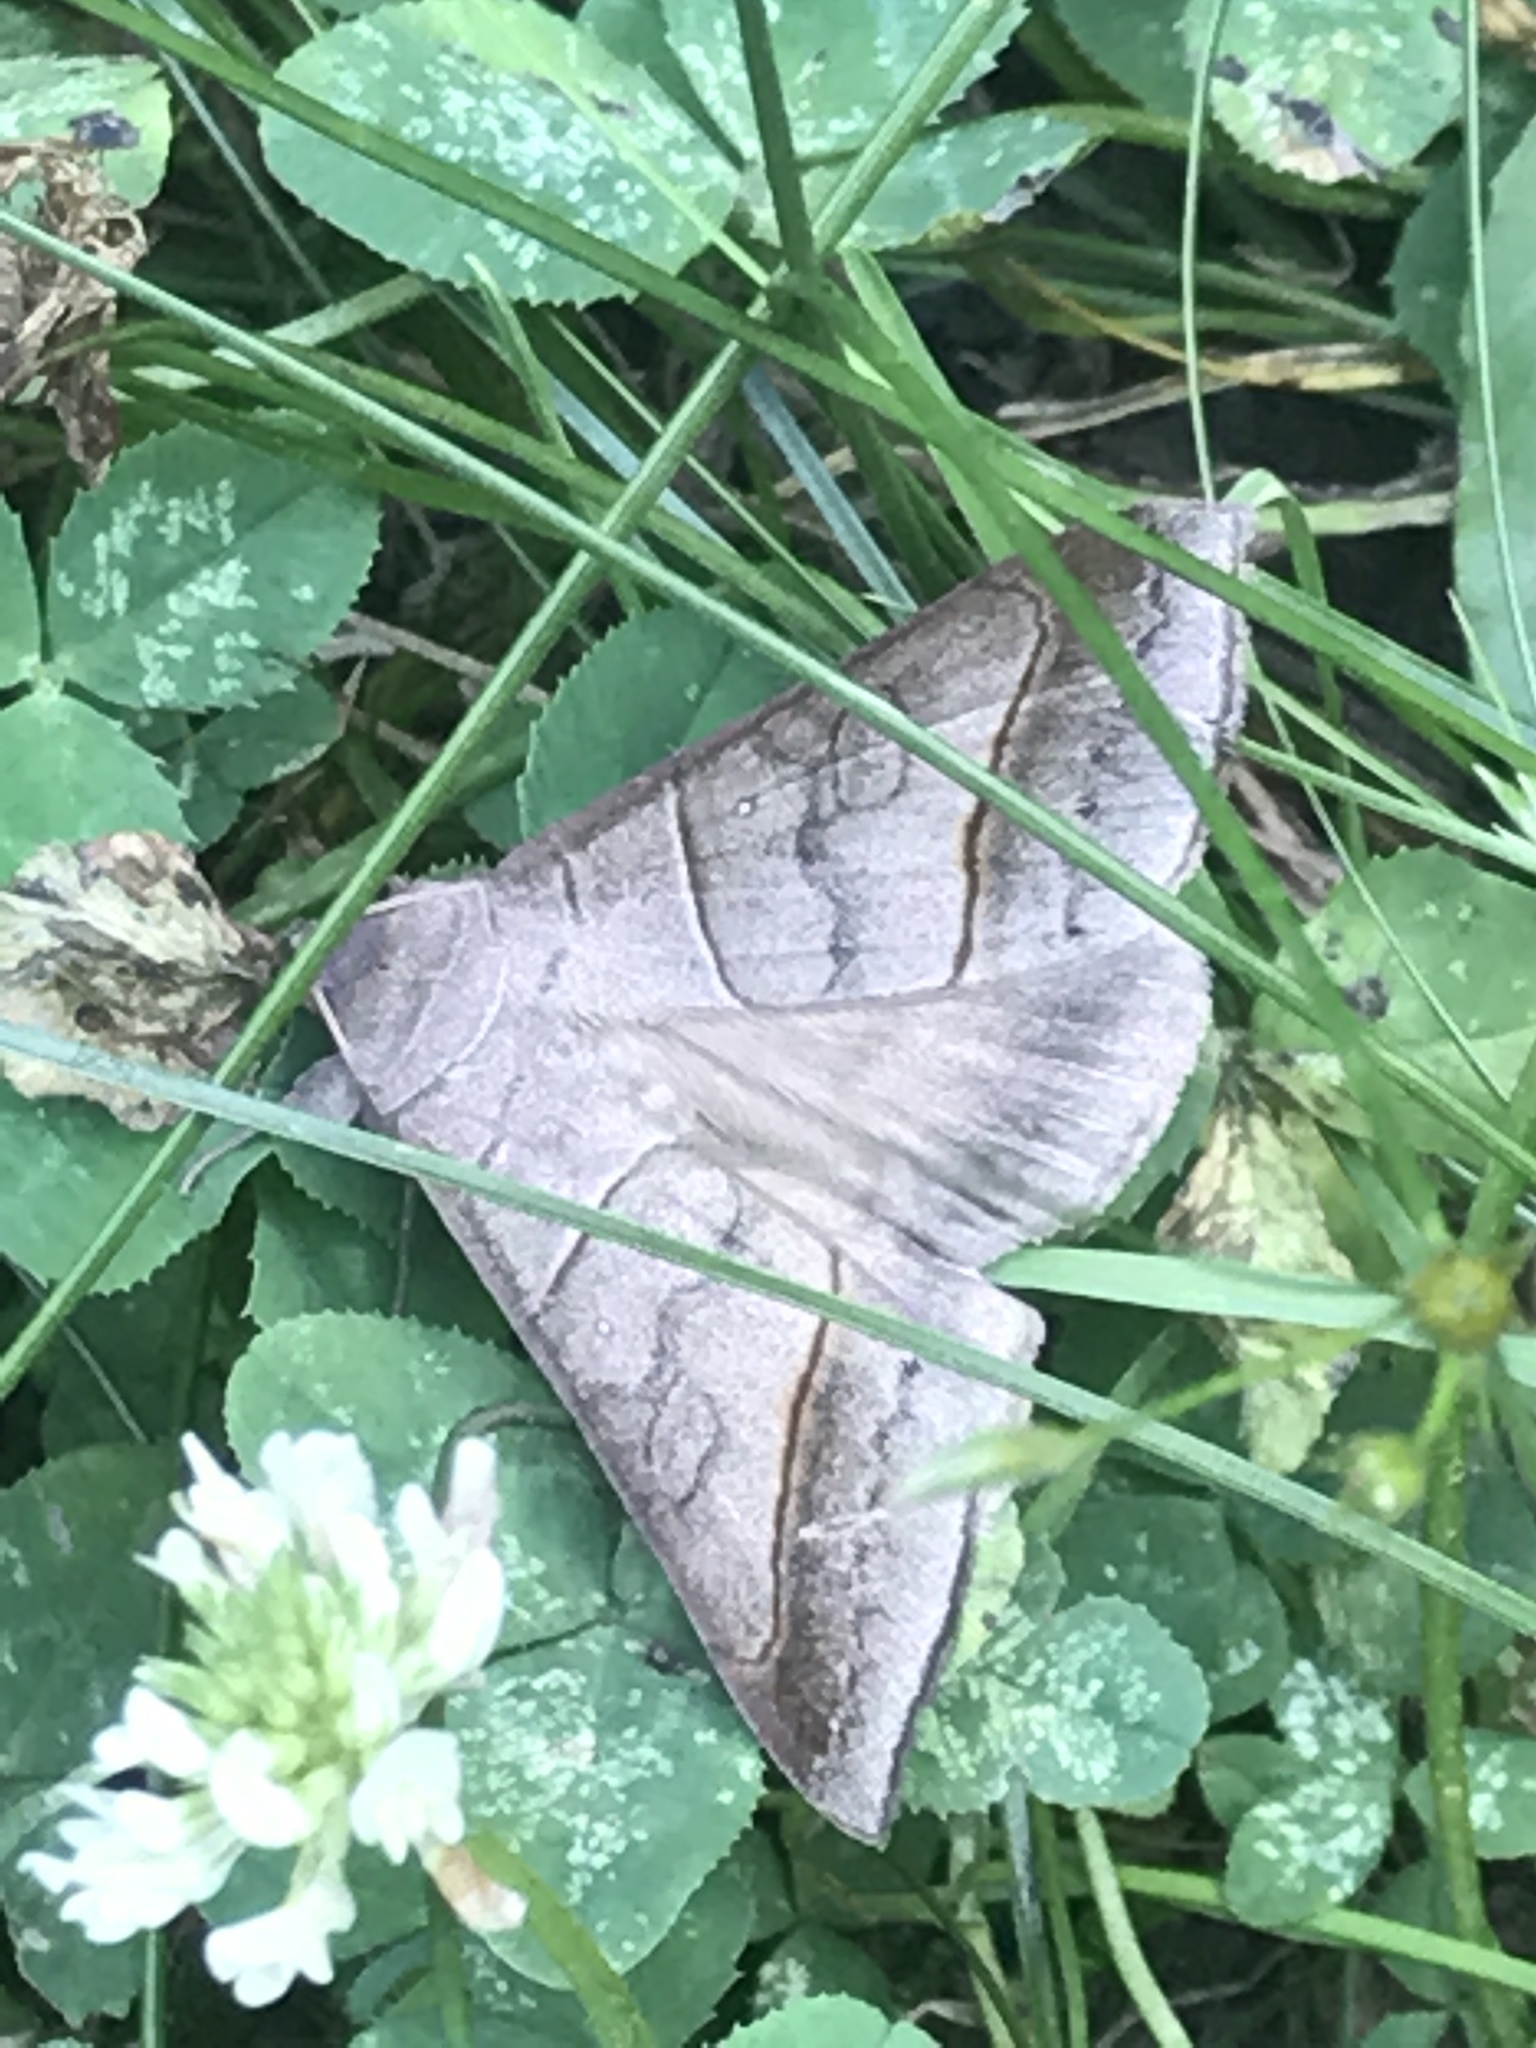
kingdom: Animalia
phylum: Arthropoda
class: Insecta
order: Lepidoptera
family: Erebidae
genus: Mocis
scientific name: Mocis texana
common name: Texas mocis moth
